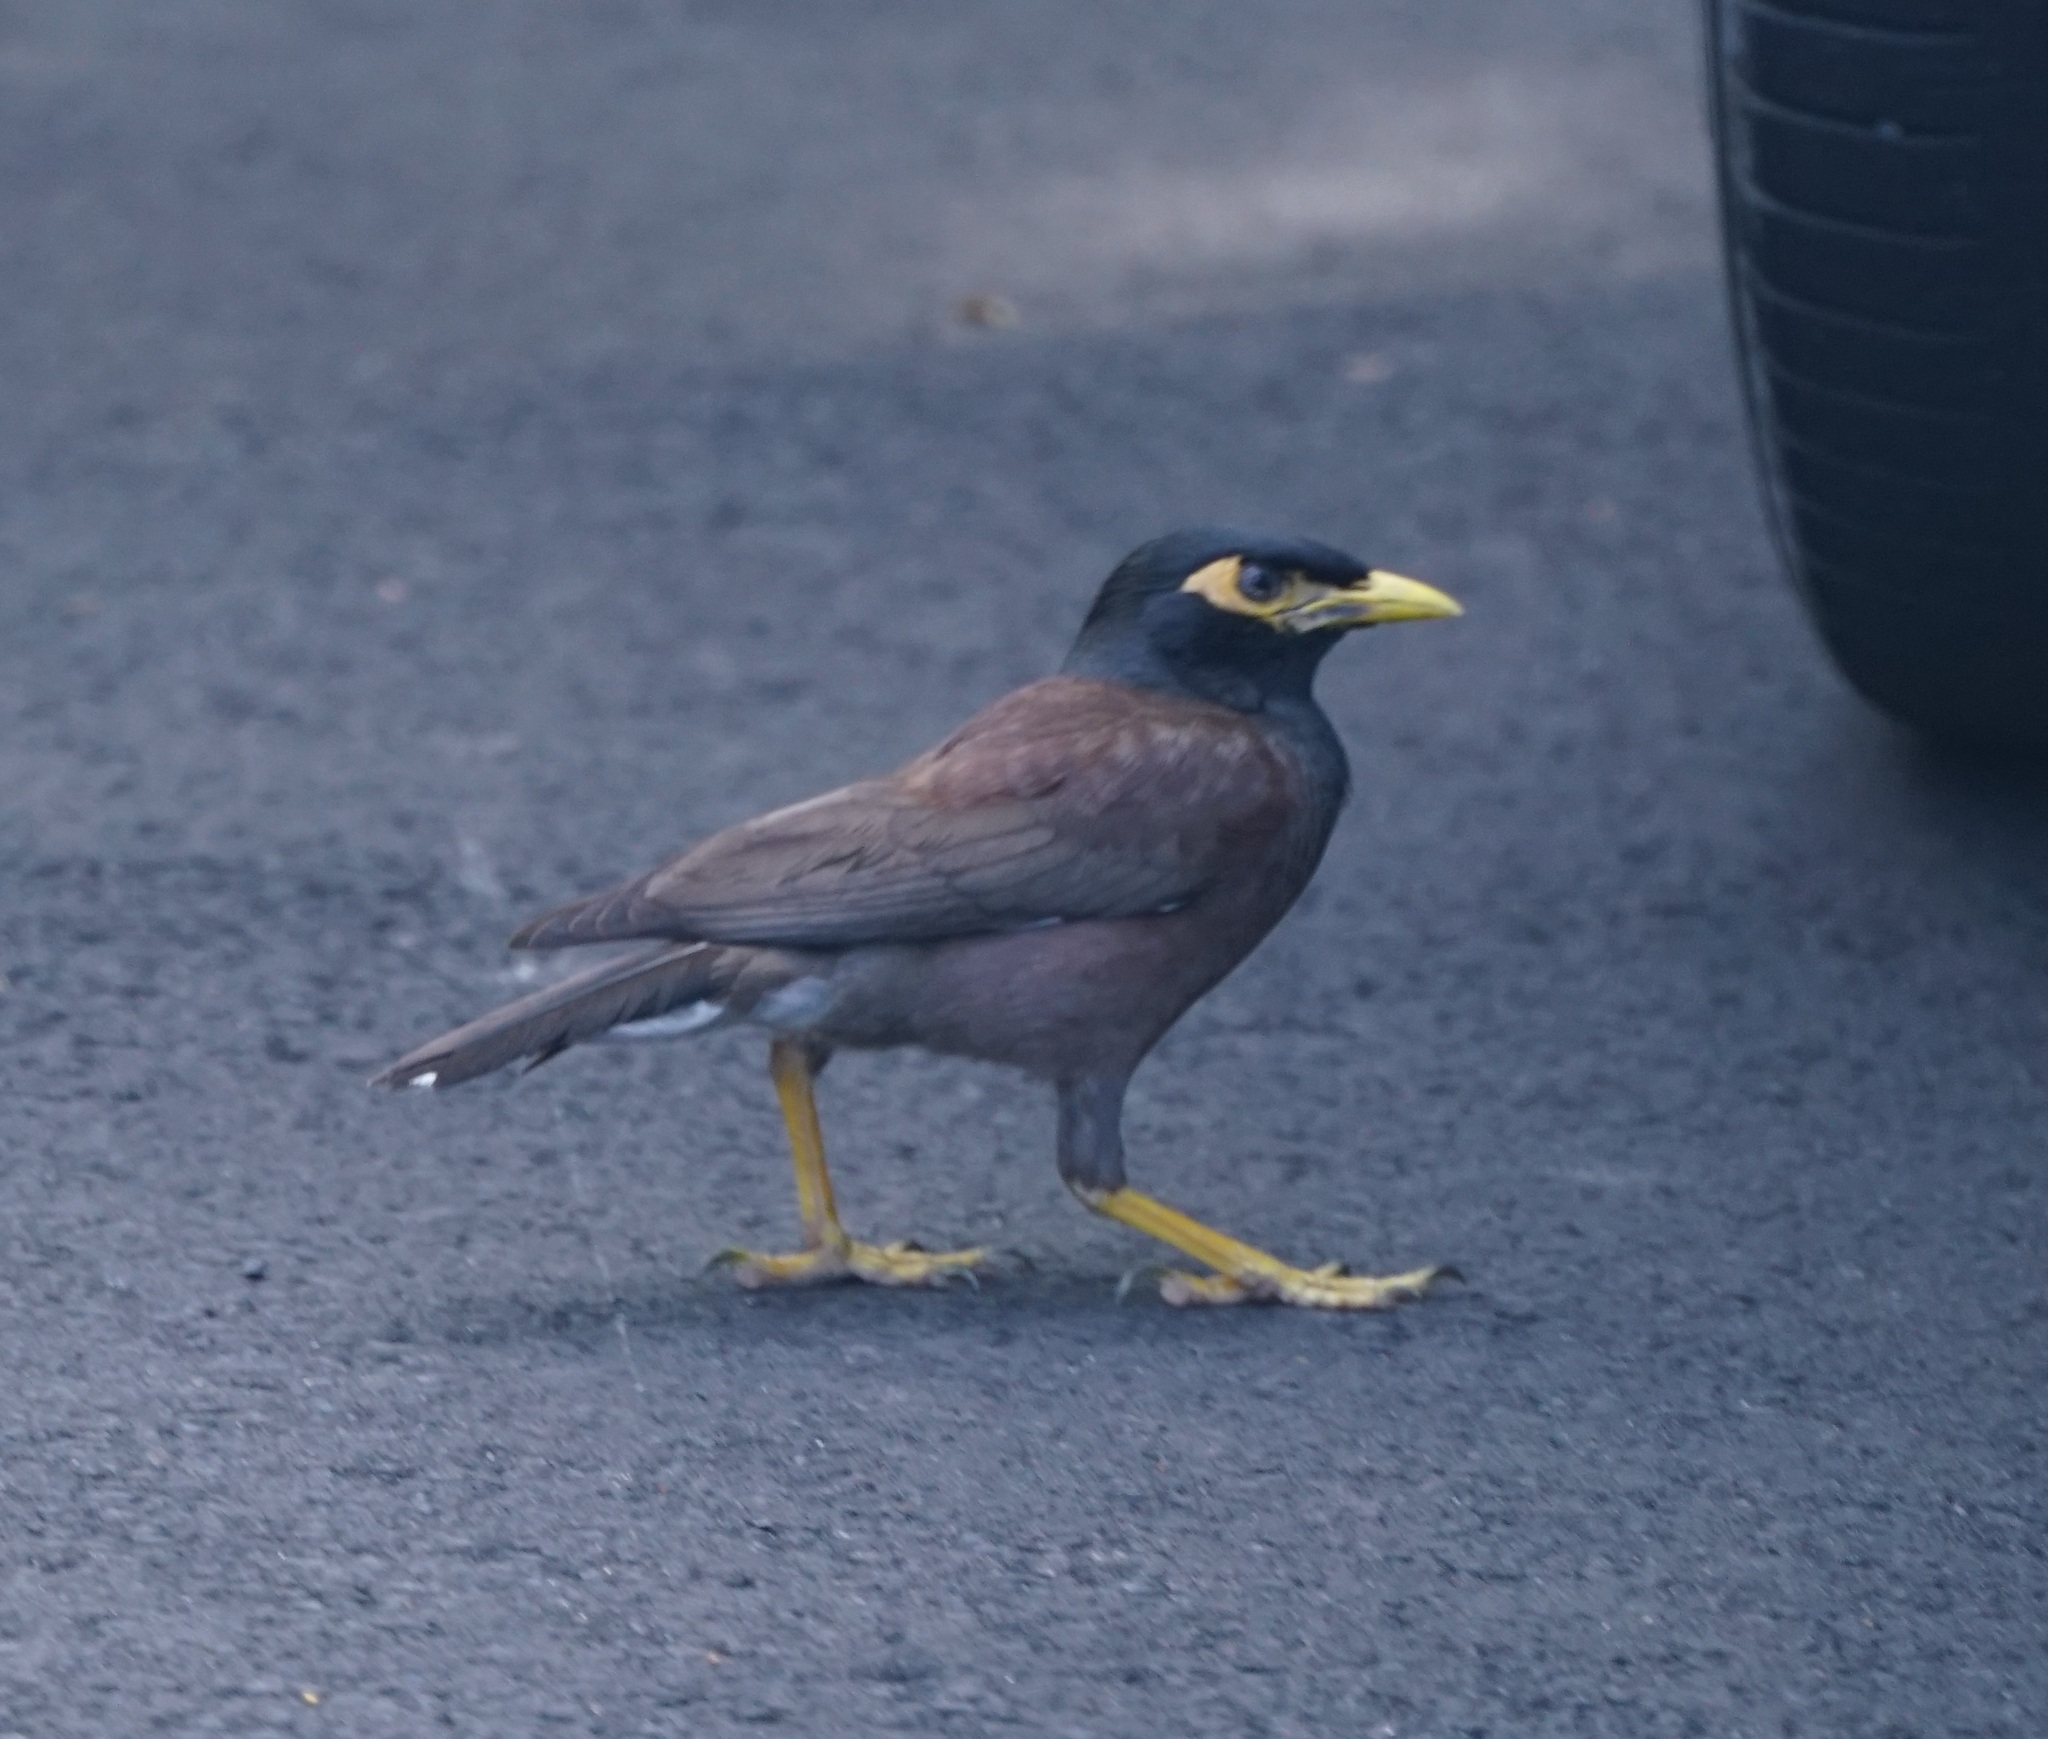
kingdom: Animalia
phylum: Chordata
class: Aves
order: Passeriformes
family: Sturnidae
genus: Acridotheres
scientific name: Acridotheres tristis
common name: Common myna
